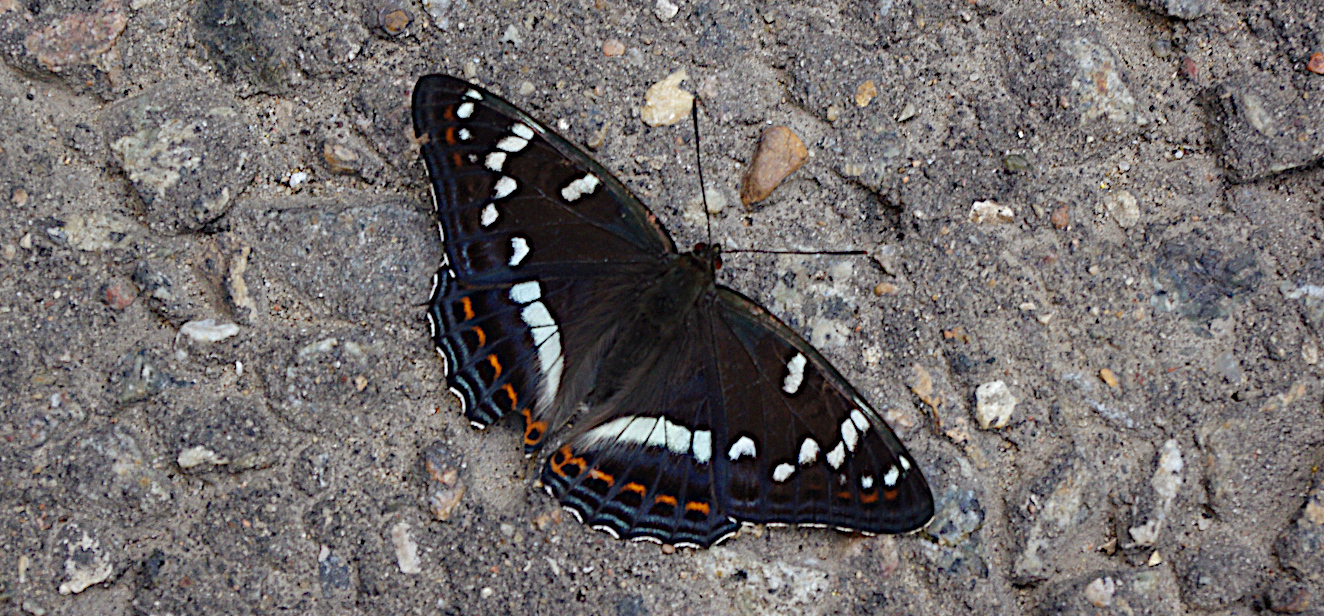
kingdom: Animalia
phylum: Arthropoda
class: Insecta
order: Lepidoptera
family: Nymphalidae
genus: Limenitis
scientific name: Limenitis populi
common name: Poplar admiral
